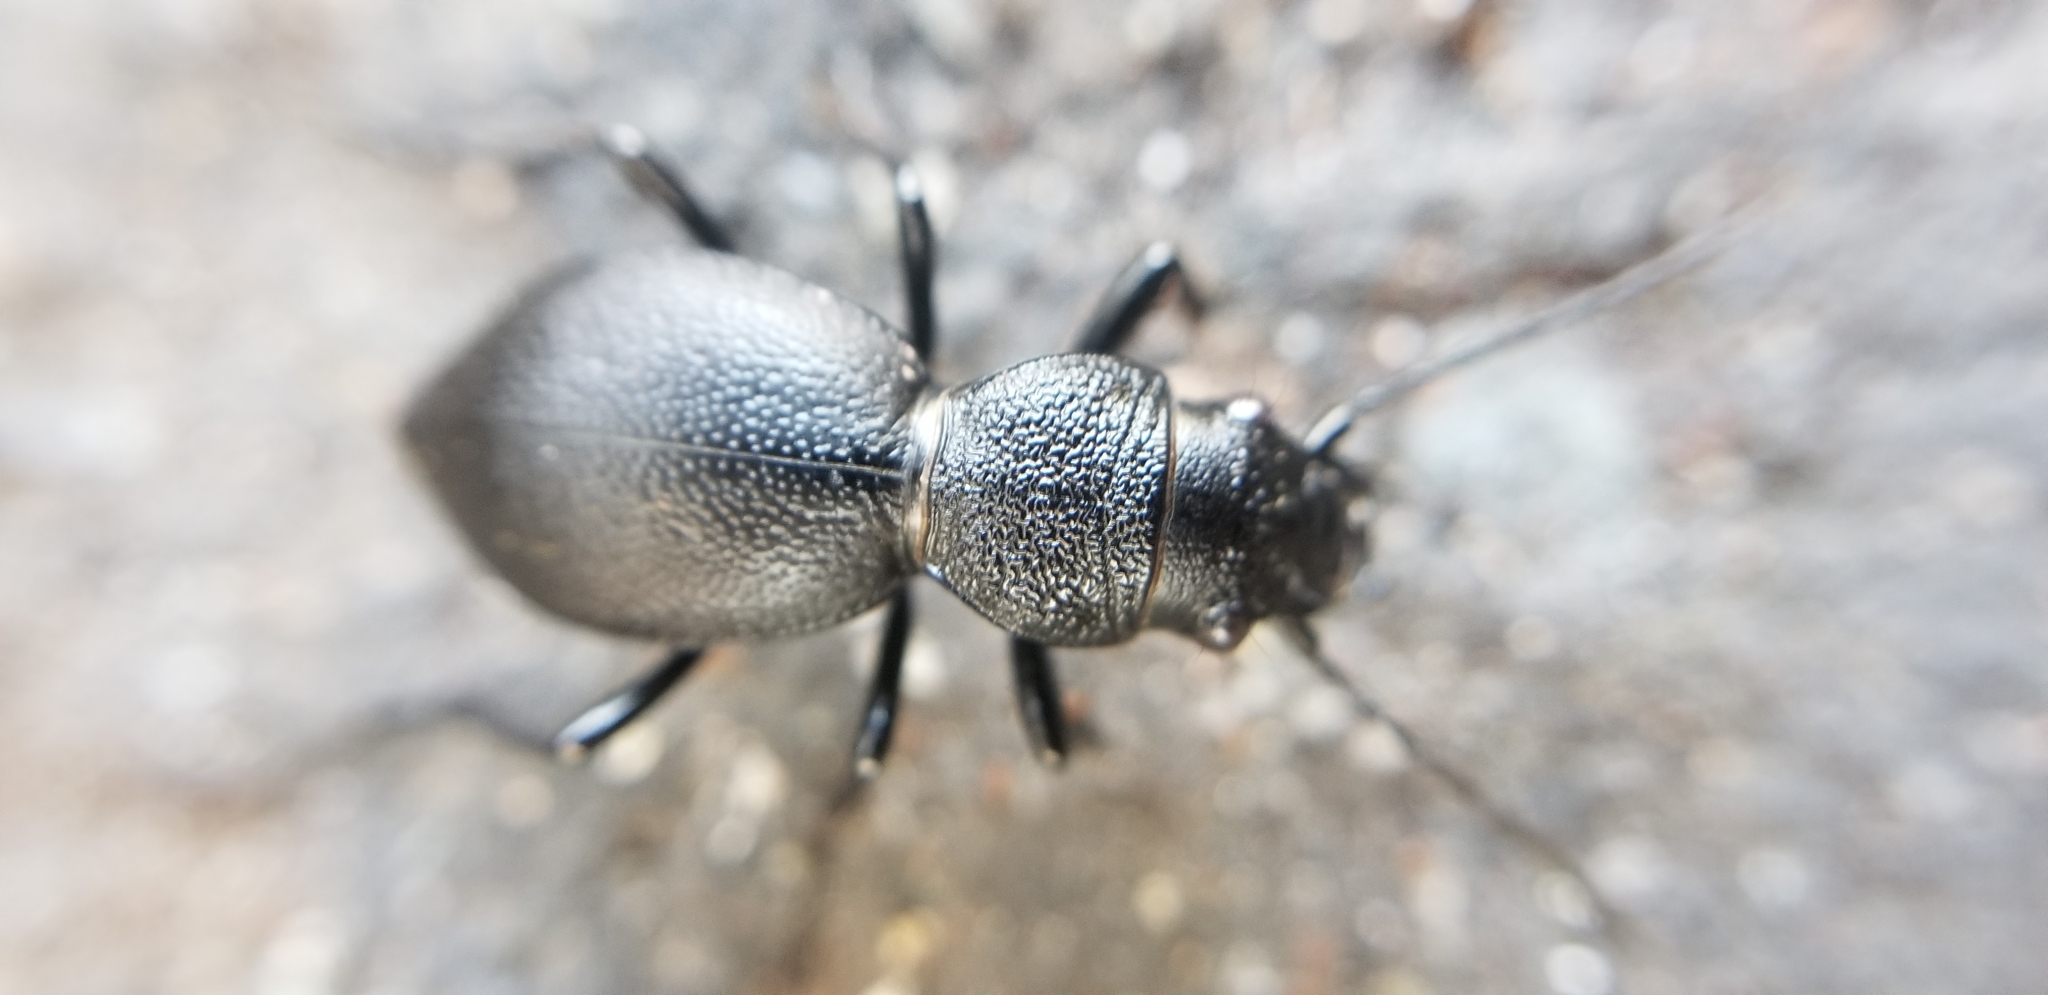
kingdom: Animalia
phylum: Arthropoda
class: Insecta
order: Coleoptera
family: Carabidae
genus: Omus
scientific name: Omus californicus
